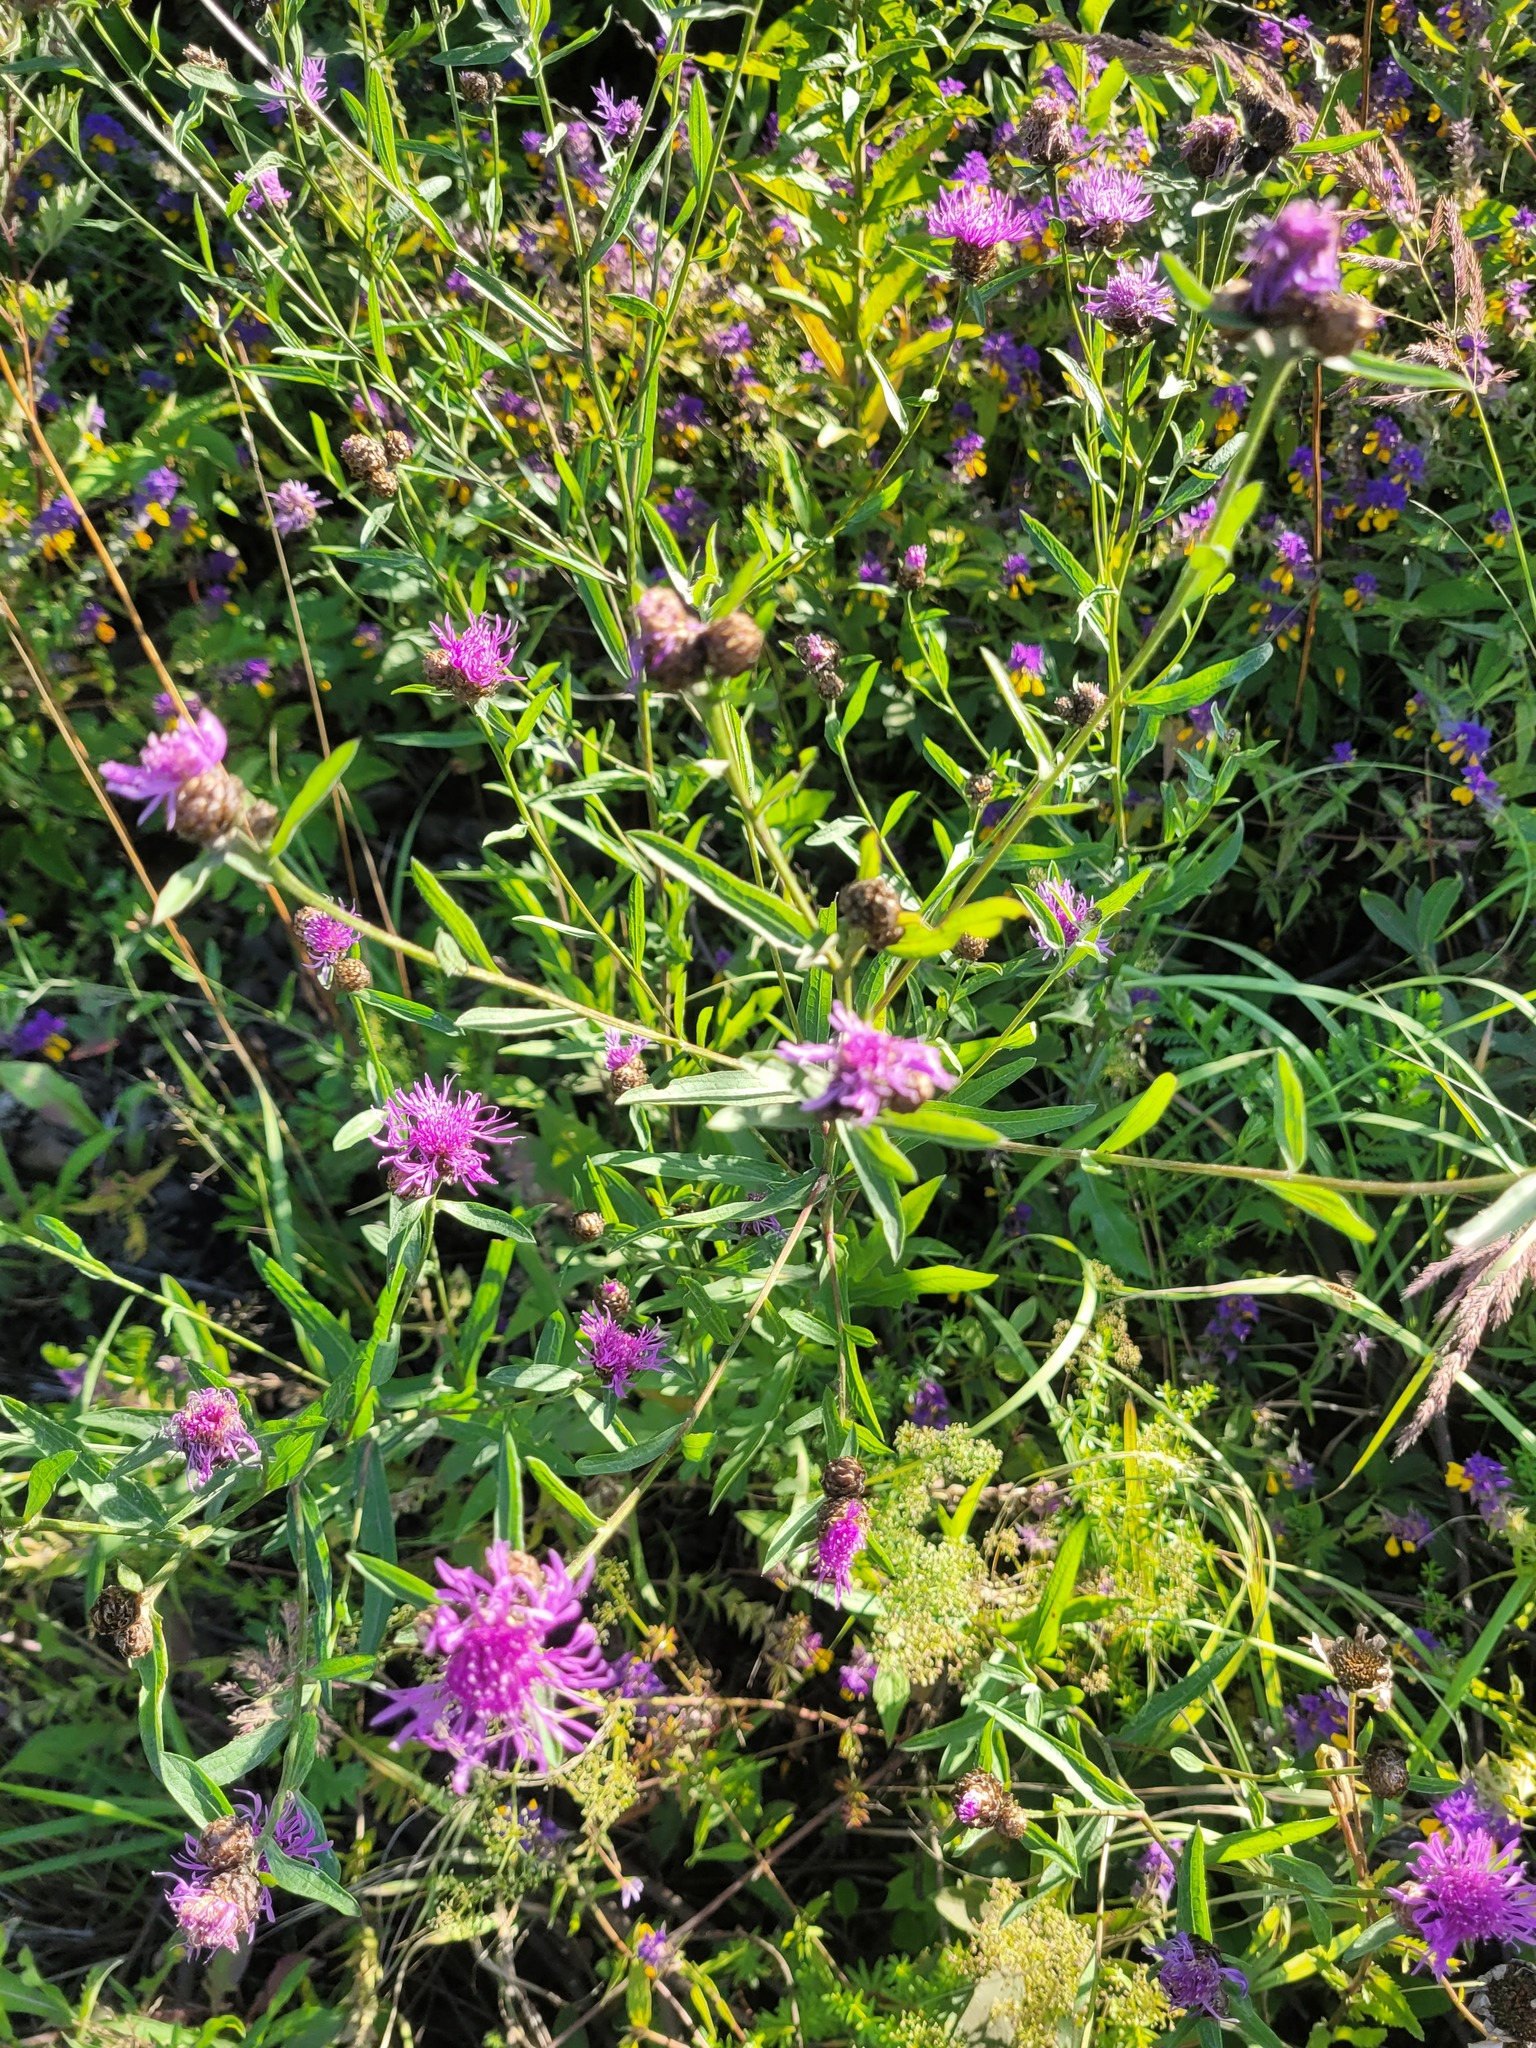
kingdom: Plantae
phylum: Tracheophyta
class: Magnoliopsida
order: Asterales
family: Asteraceae
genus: Centaurea
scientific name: Centaurea jacea
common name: Brown knapweed
